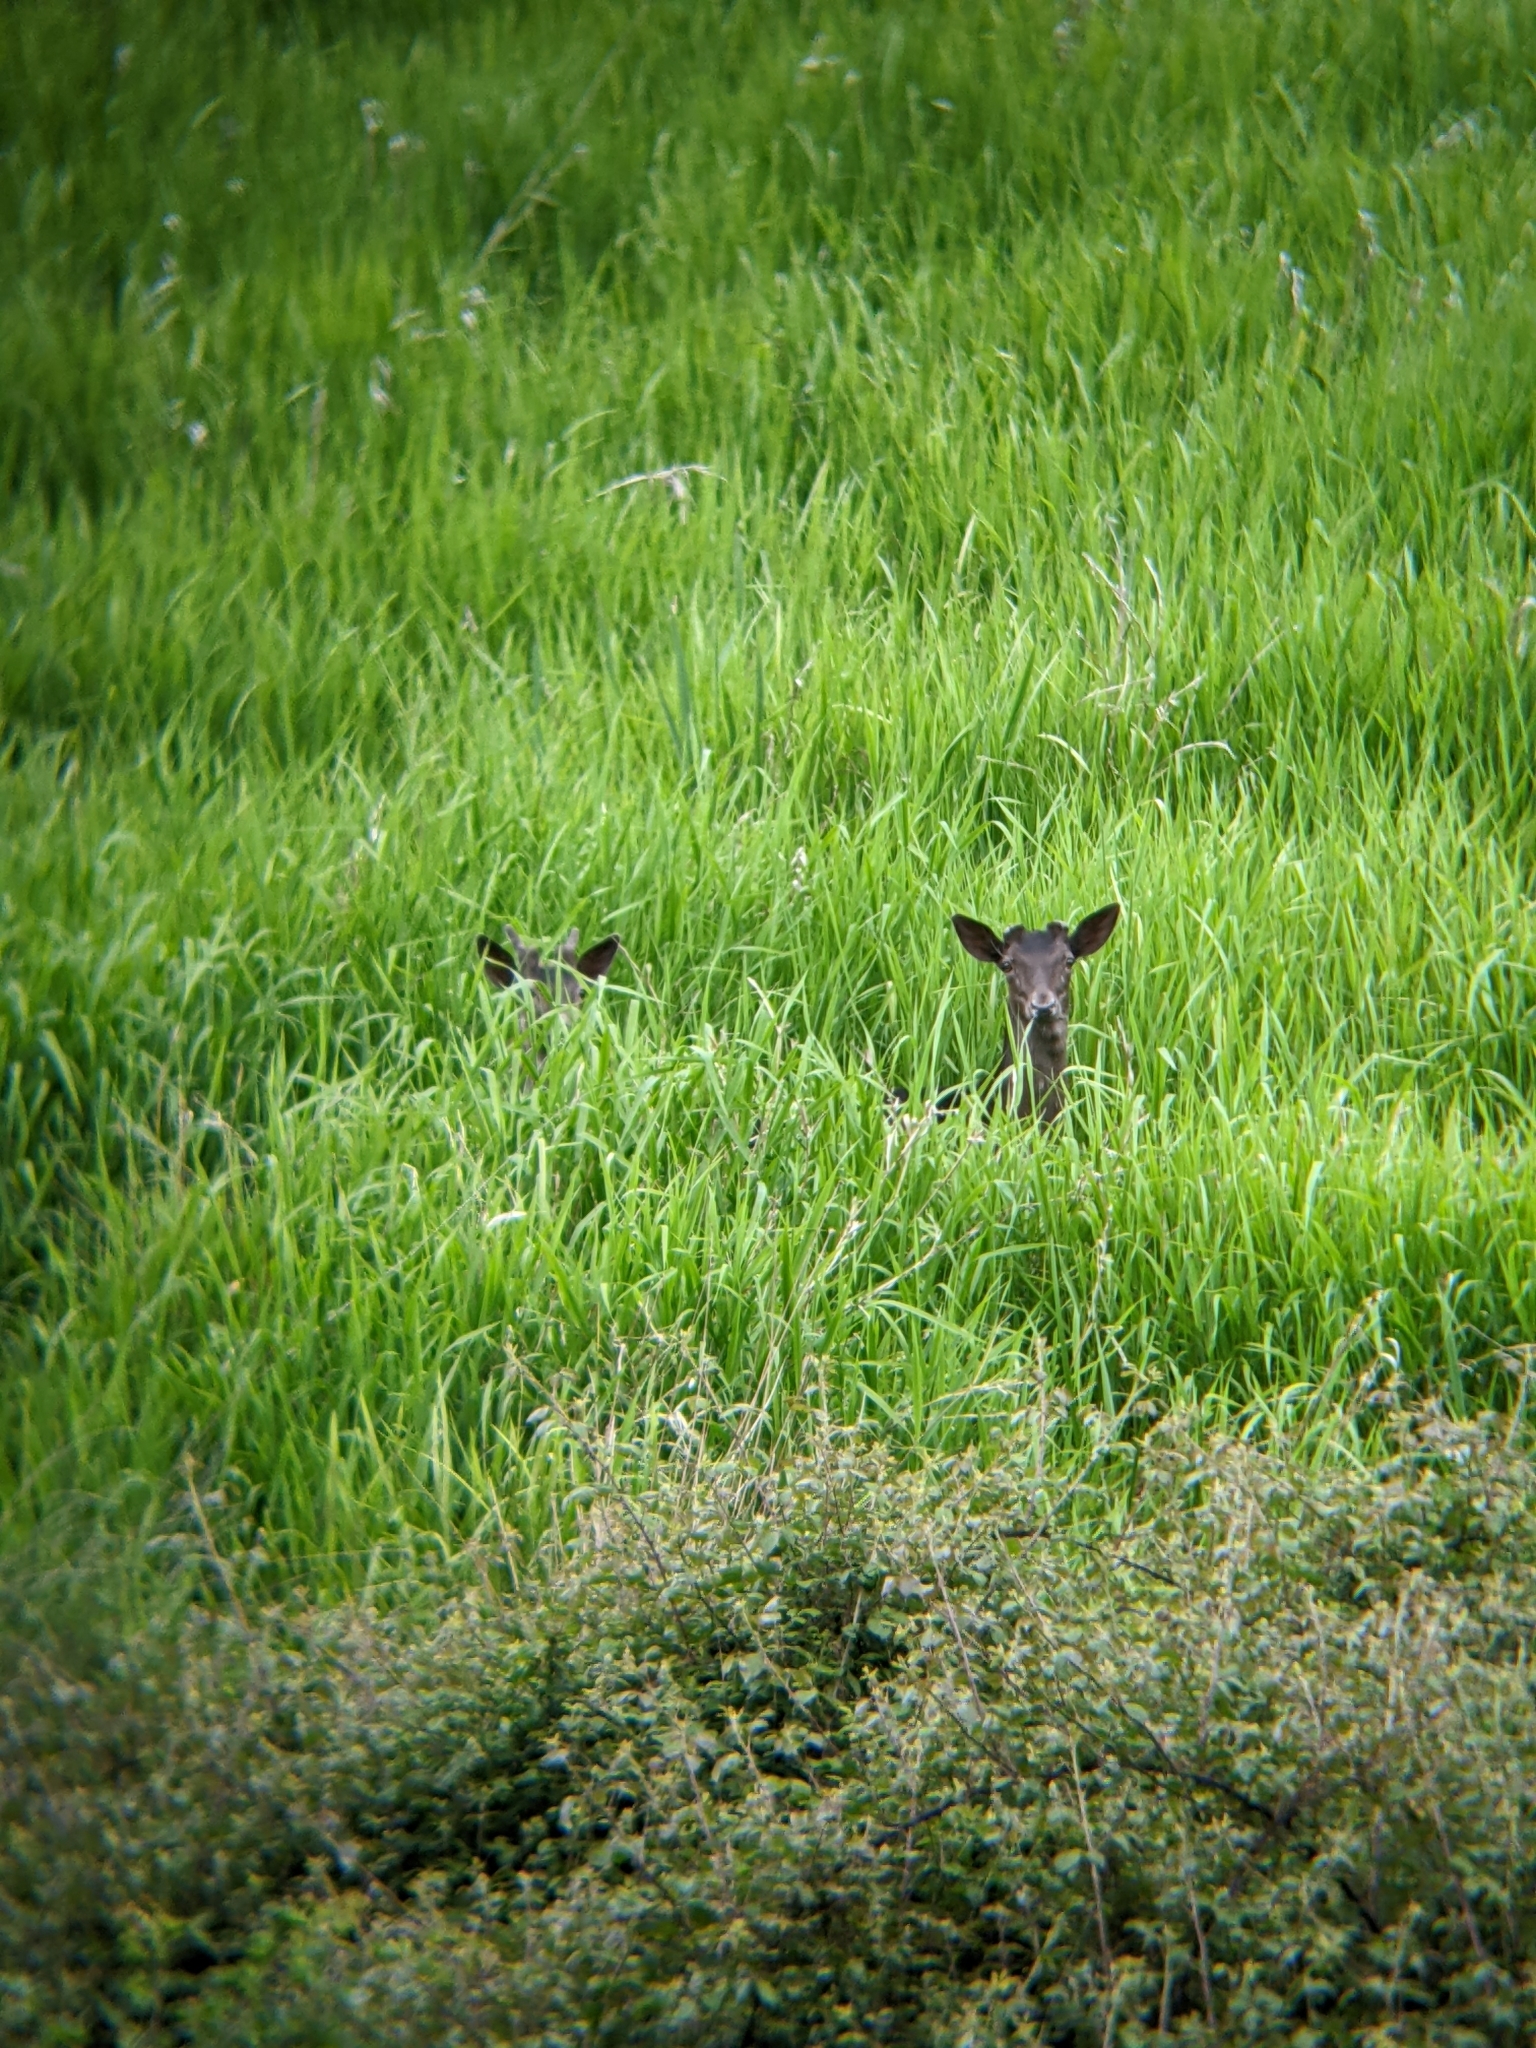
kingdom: Animalia
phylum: Chordata
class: Mammalia
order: Artiodactyla
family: Cervidae
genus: Cervus
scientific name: Cervus nippon
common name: Sika deer
